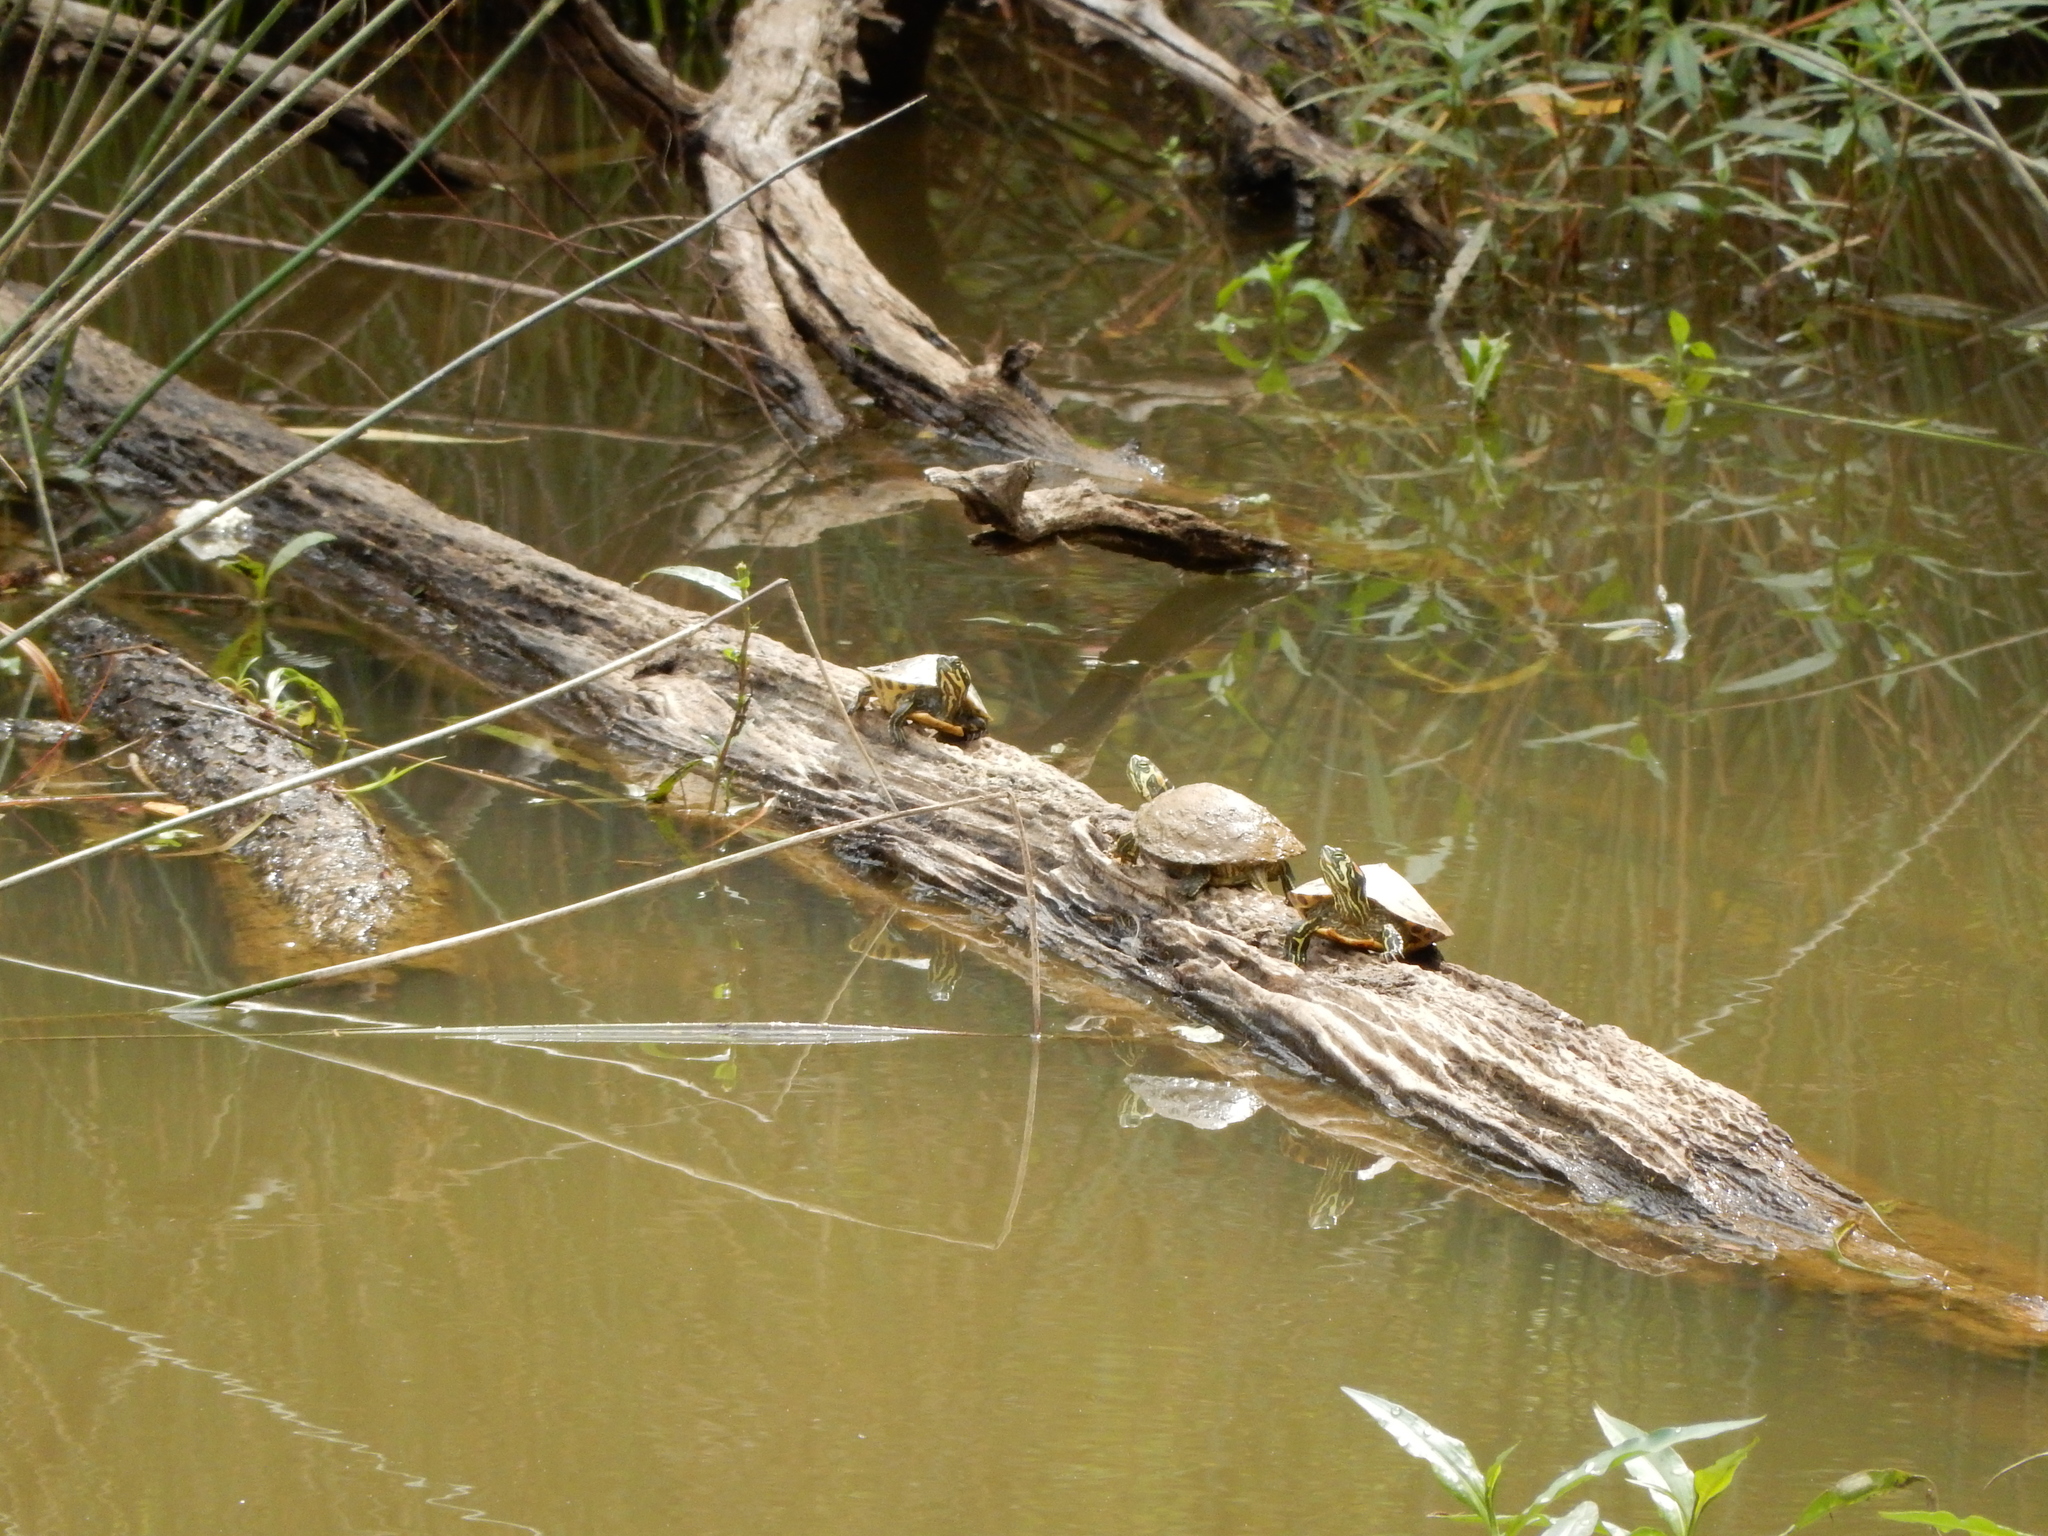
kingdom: Animalia
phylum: Chordata
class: Testudines
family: Emydidae
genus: Trachemys
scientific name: Trachemys scripta
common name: Slider
